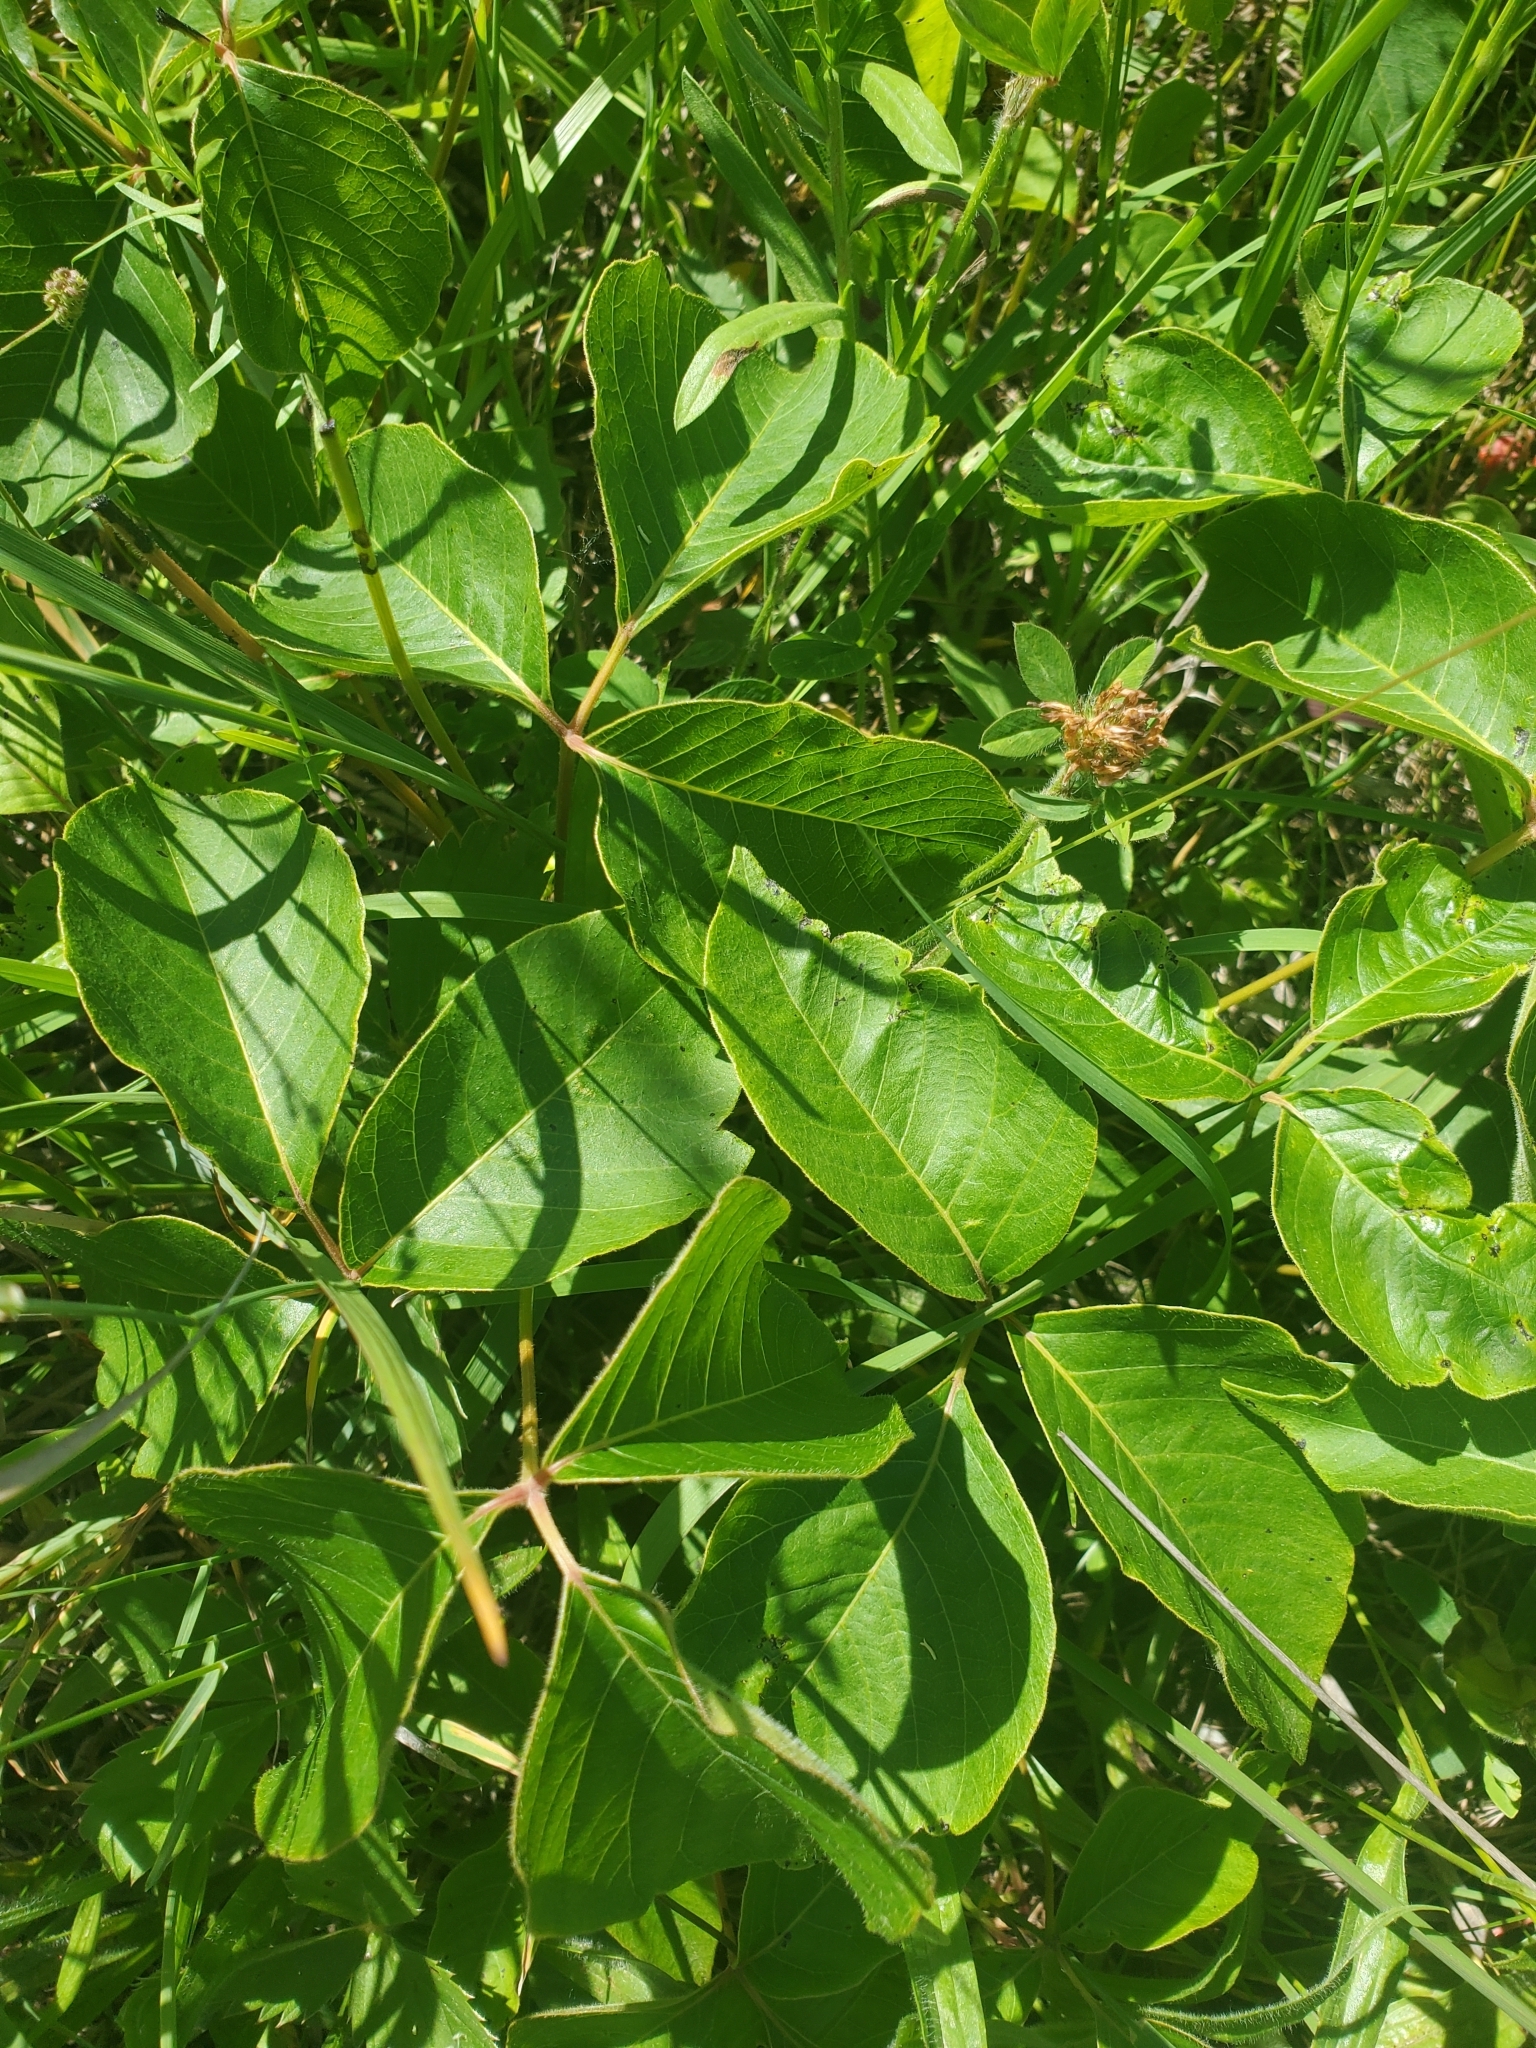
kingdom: Plantae
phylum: Tracheophyta
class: Magnoliopsida
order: Sapindales
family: Anacardiaceae
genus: Toxicodendron
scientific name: Toxicodendron radicans
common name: Poison ivy
